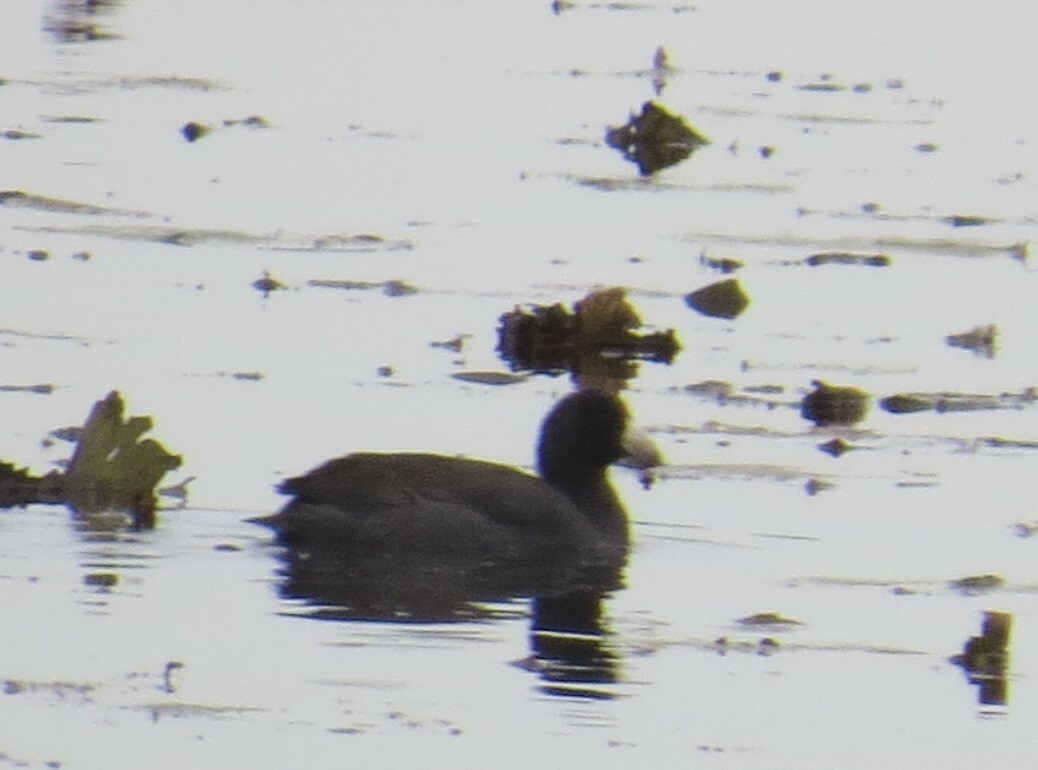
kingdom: Animalia
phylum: Chordata
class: Aves
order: Gruiformes
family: Rallidae
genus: Fulica
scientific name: Fulica americana
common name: American coot
